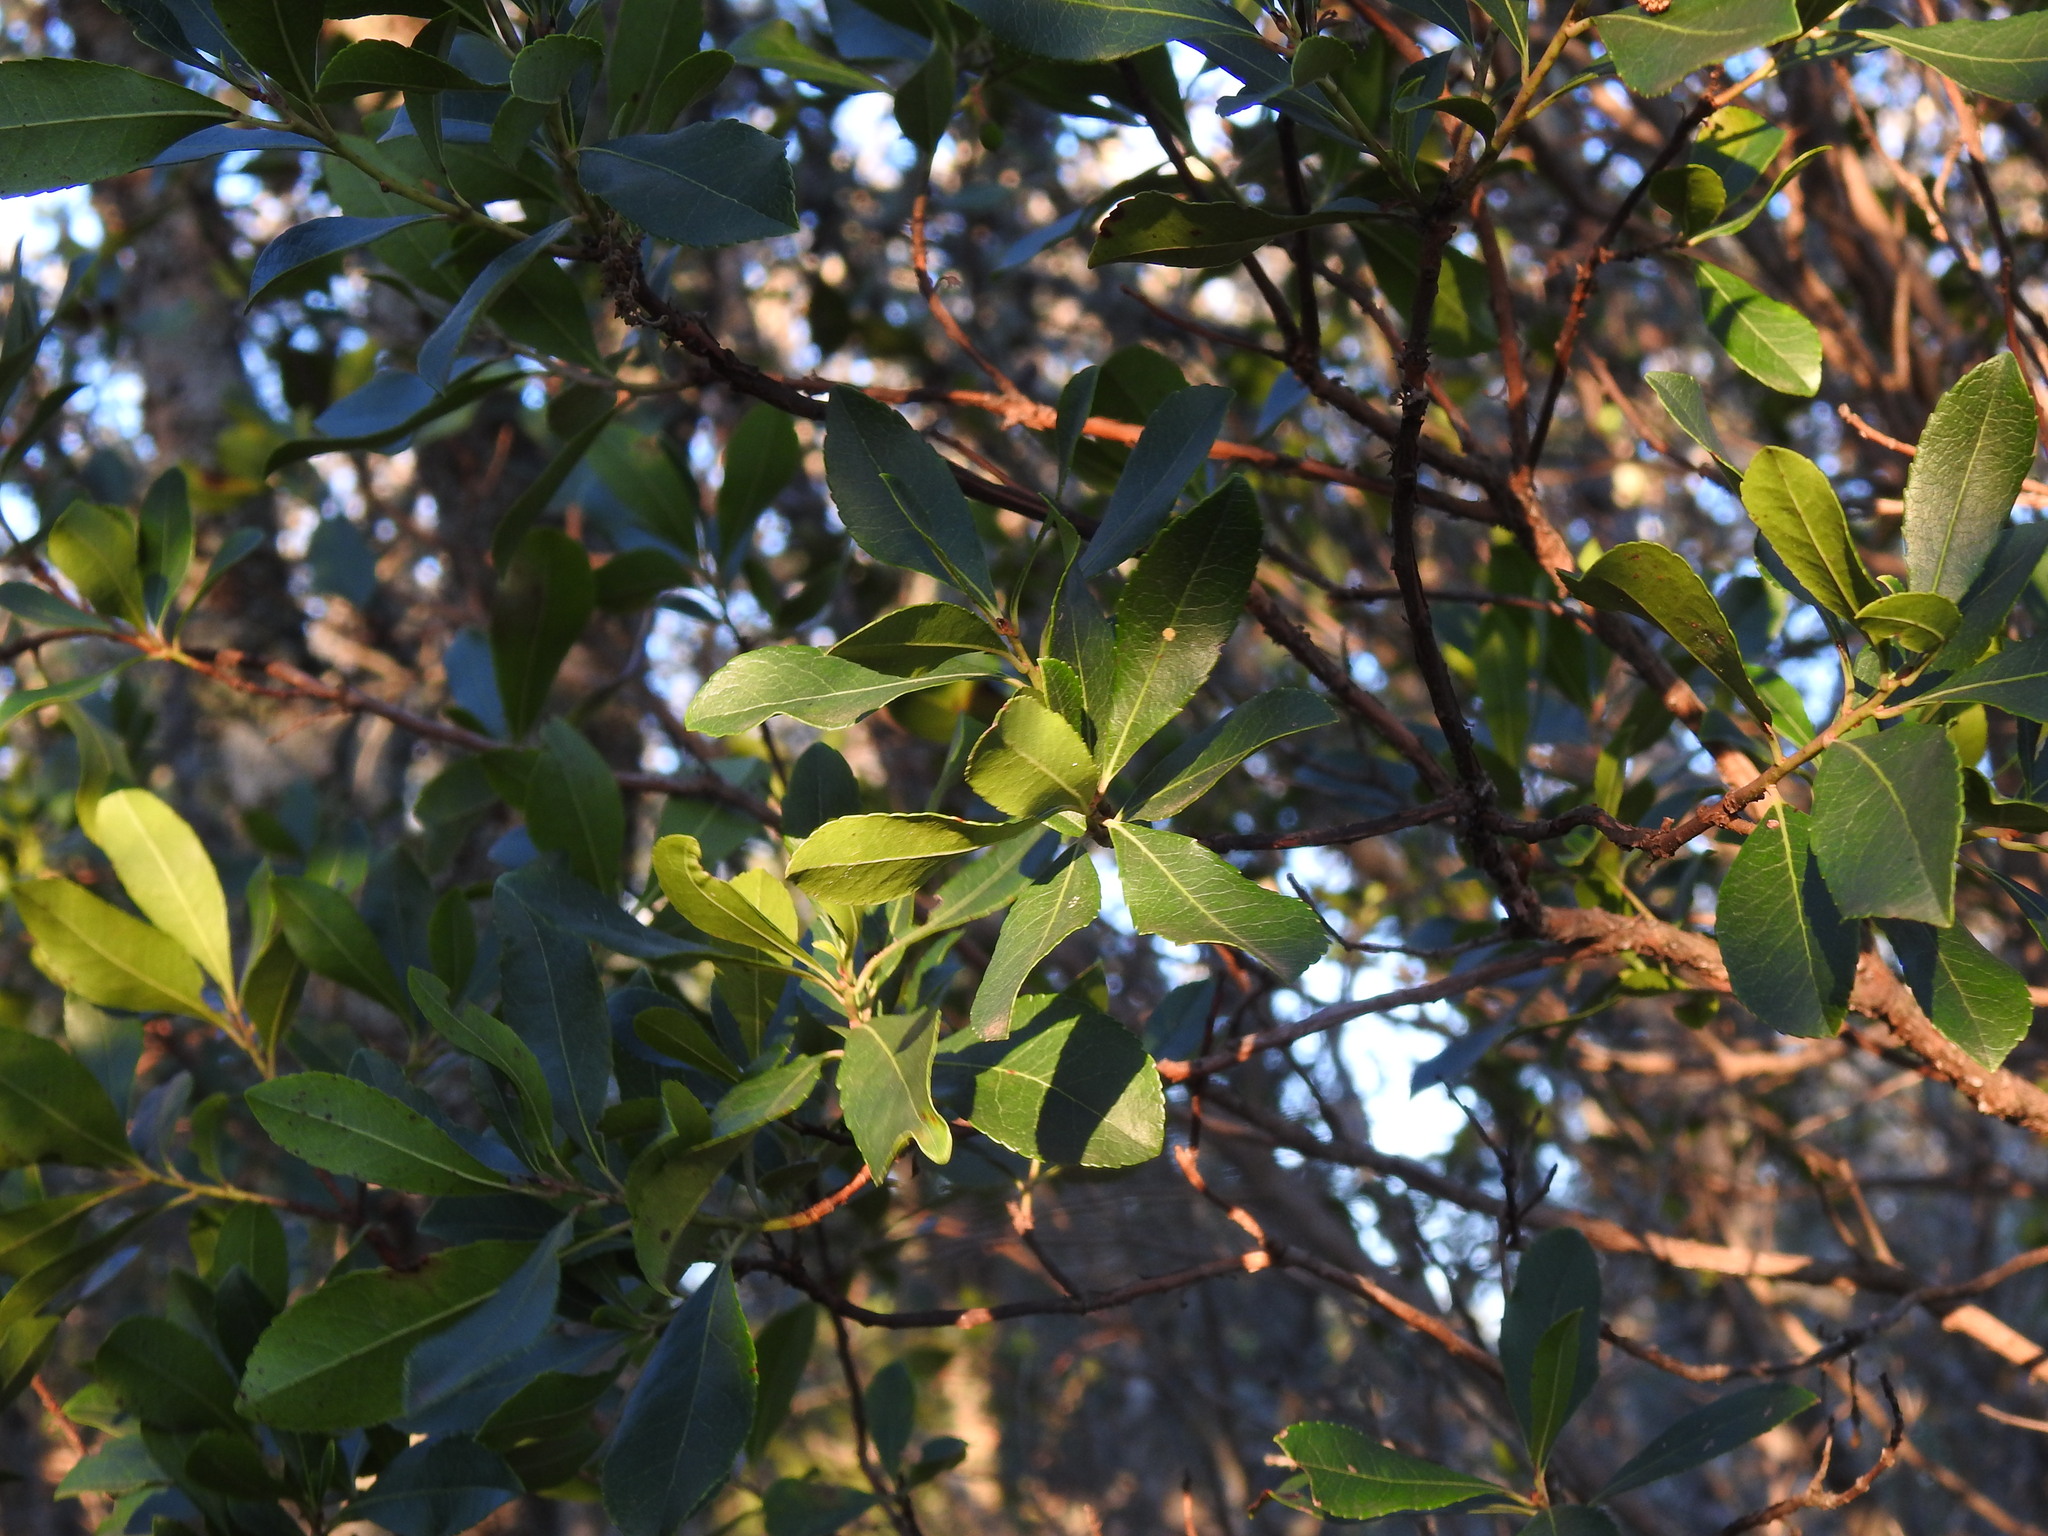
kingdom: Plantae
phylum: Tracheophyta
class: Magnoliopsida
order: Ericales
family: Ericaceae
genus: Arbutus
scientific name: Arbutus unedo
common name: Strawberry-tree
